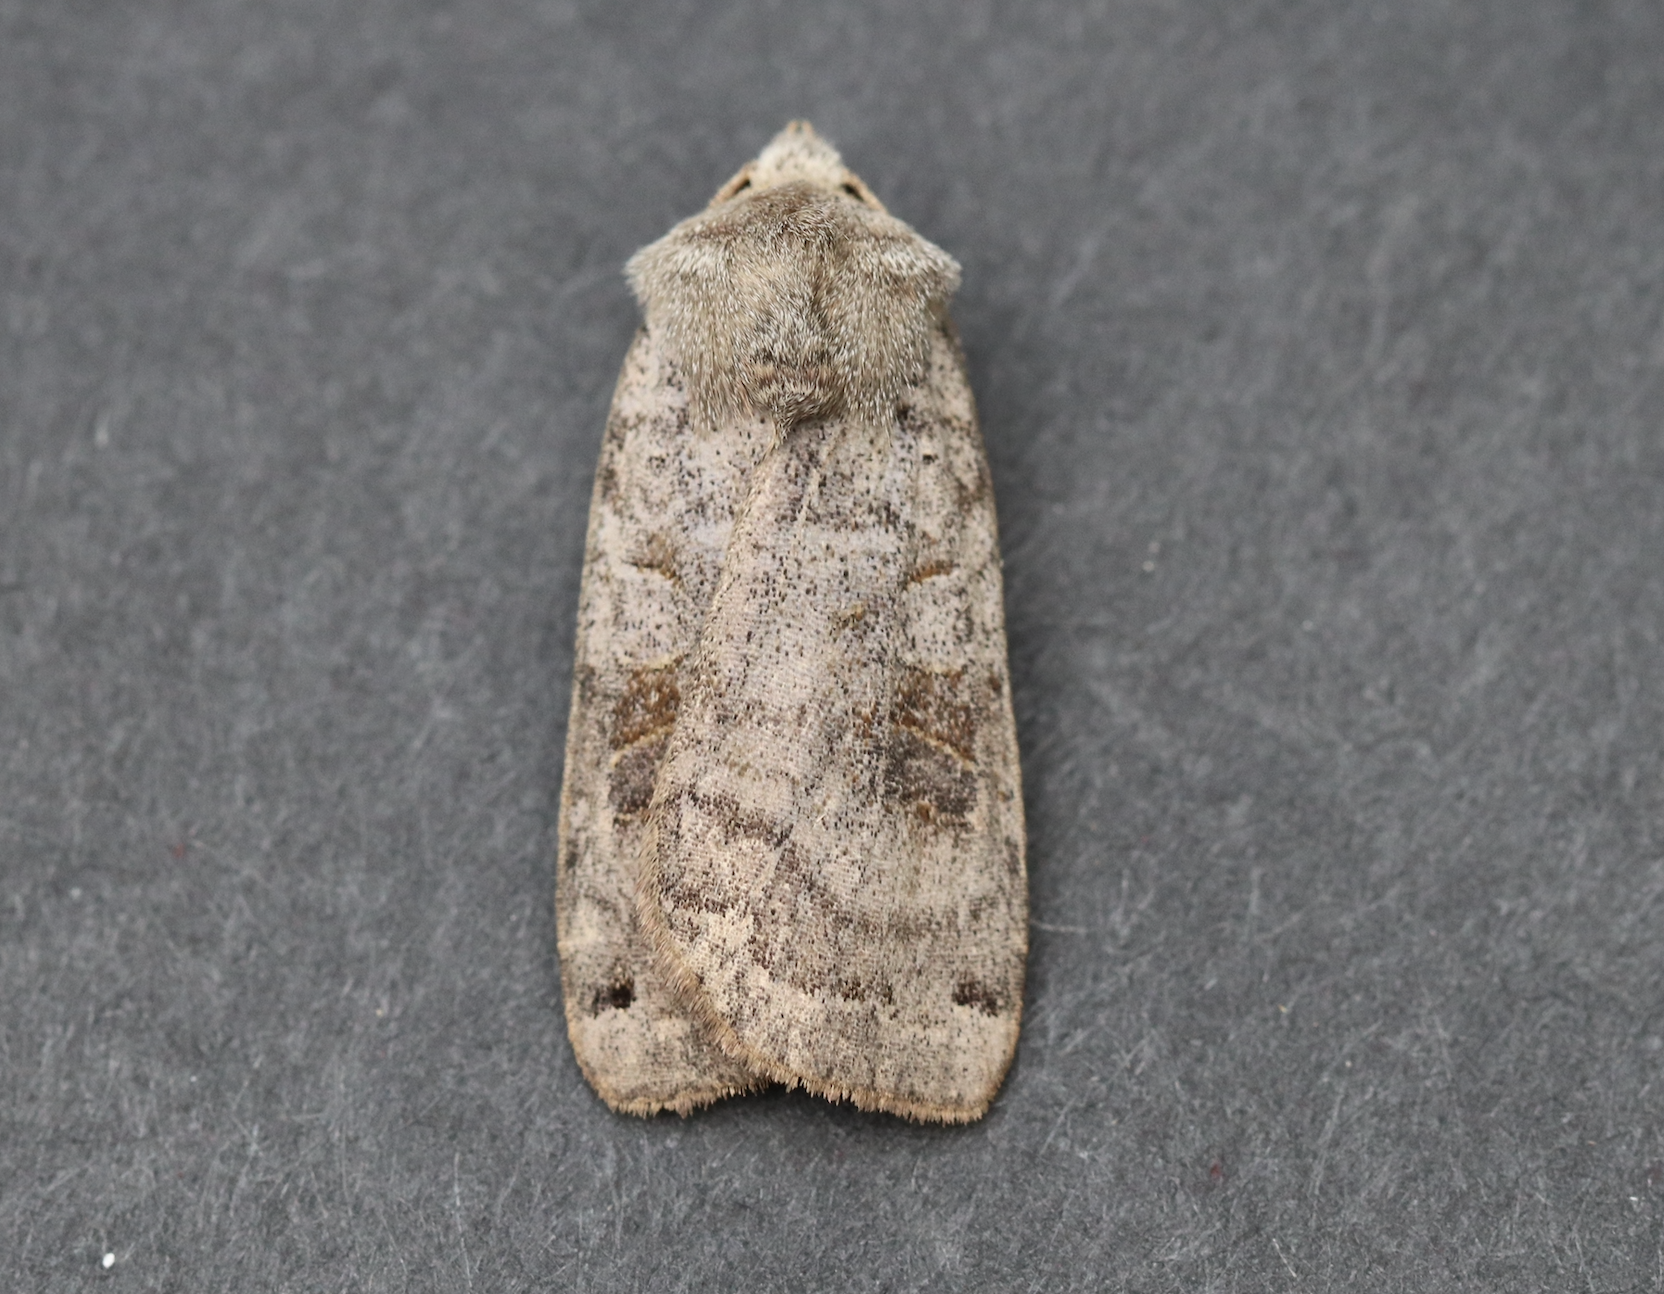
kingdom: Animalia
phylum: Arthropoda
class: Insecta
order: Lepidoptera
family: Noctuidae
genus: Xestia
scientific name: Xestia smithii
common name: Smith's dart
